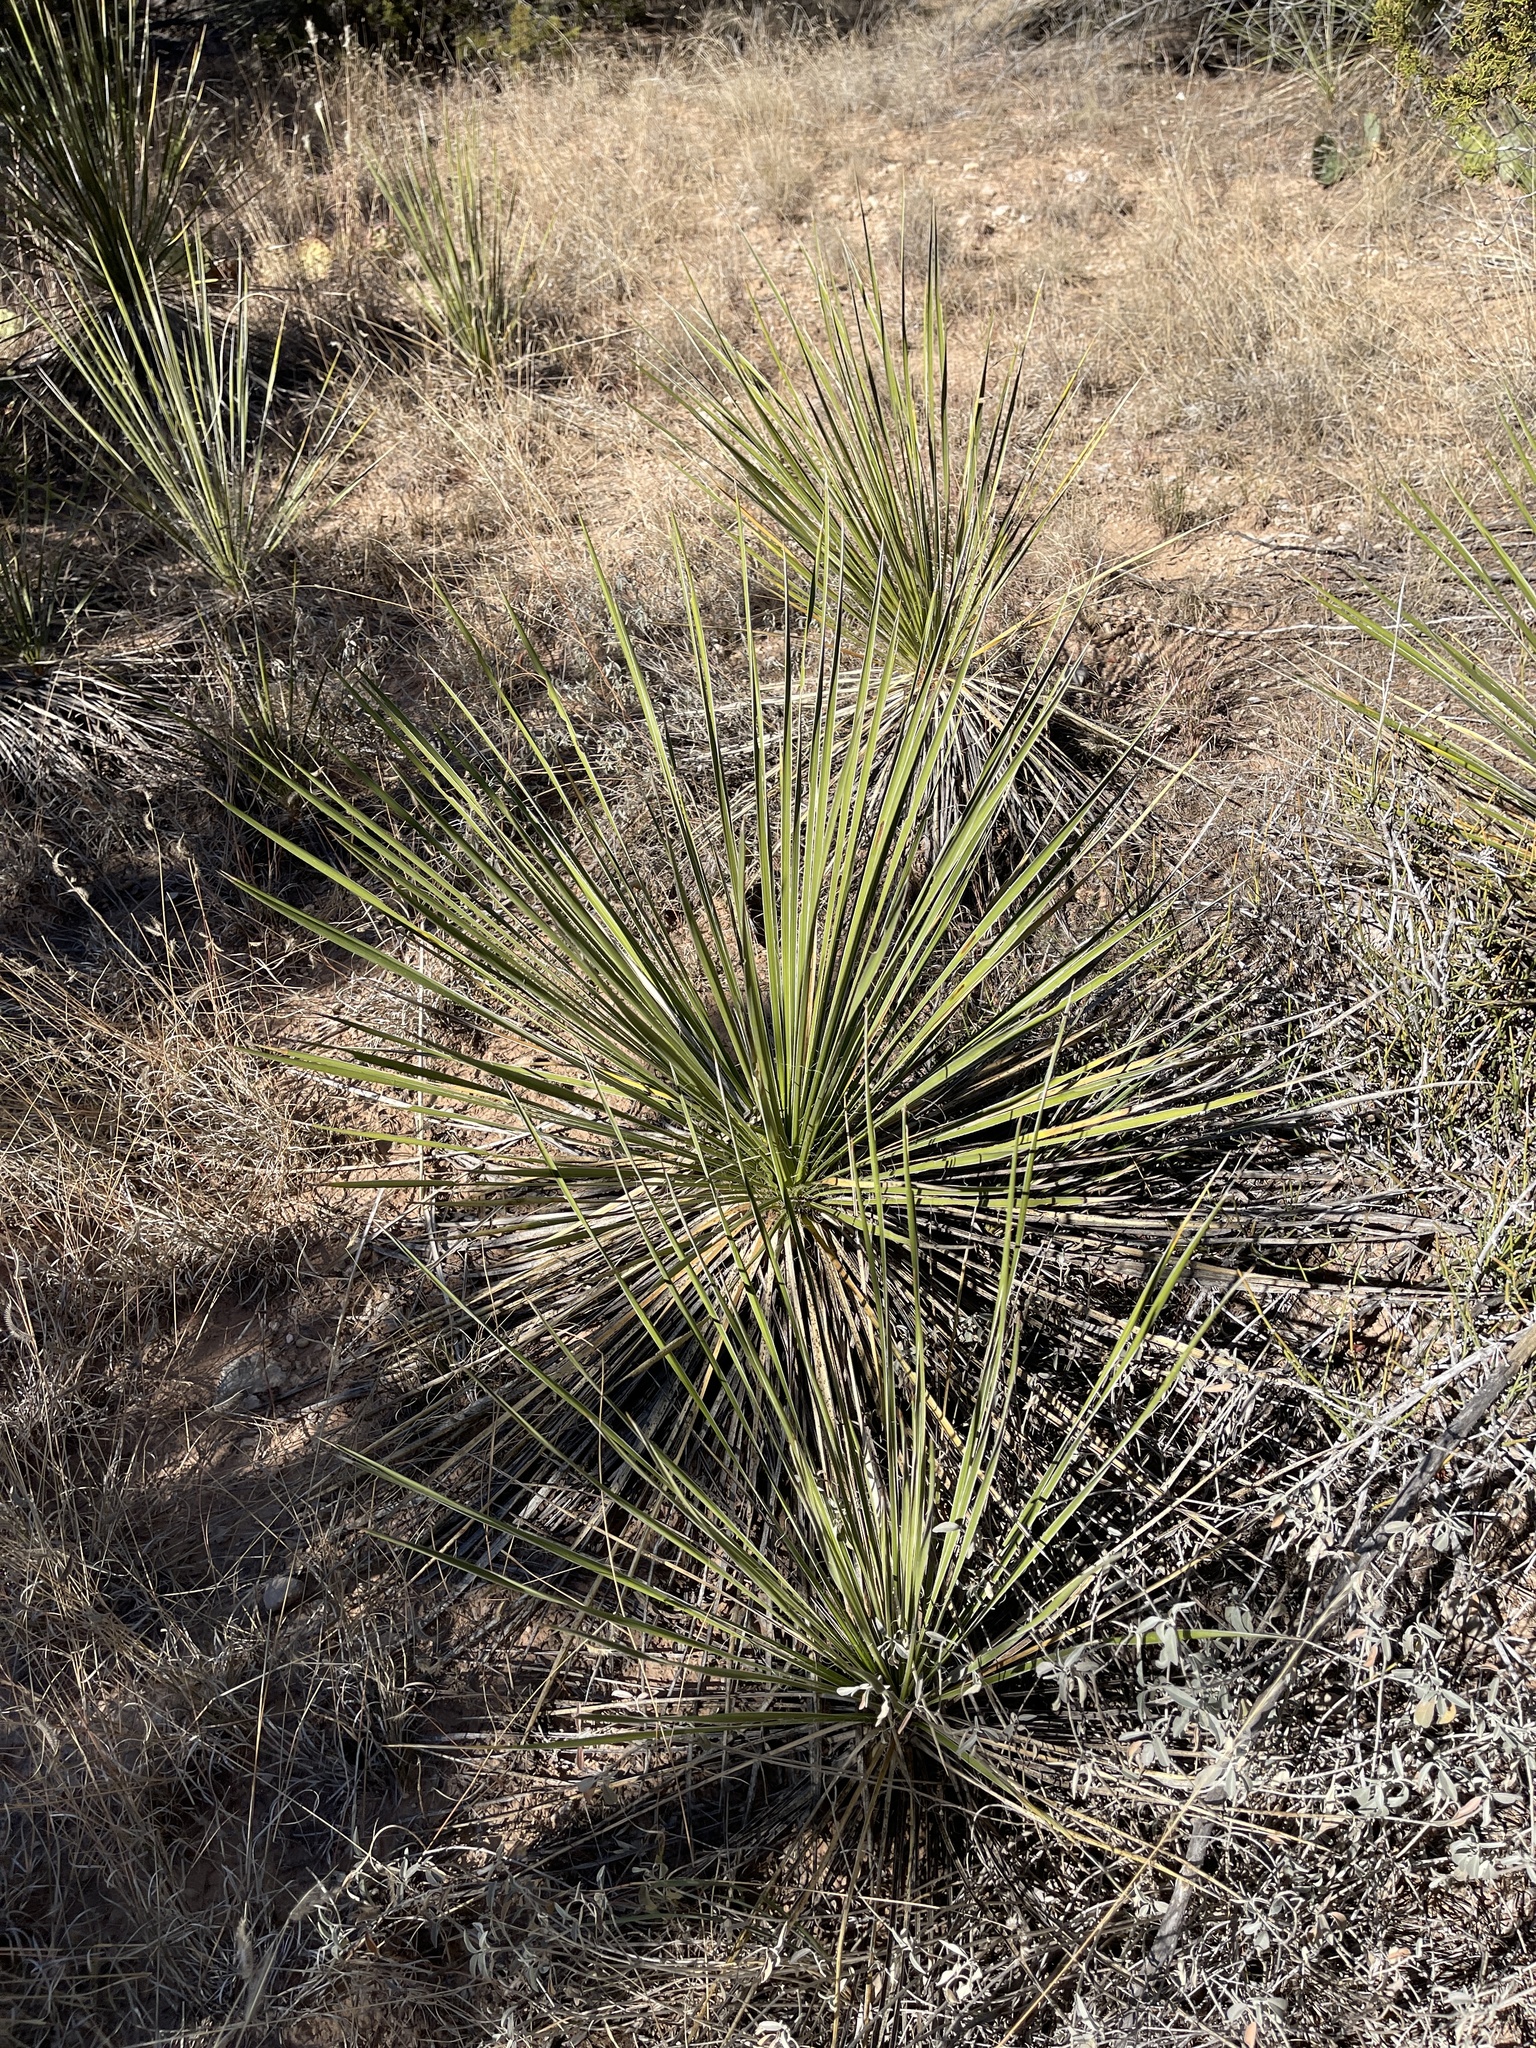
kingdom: Plantae
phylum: Tracheophyta
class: Liliopsida
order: Asparagales
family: Asparagaceae
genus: Yucca
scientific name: Yucca campestris
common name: Plains yucca
